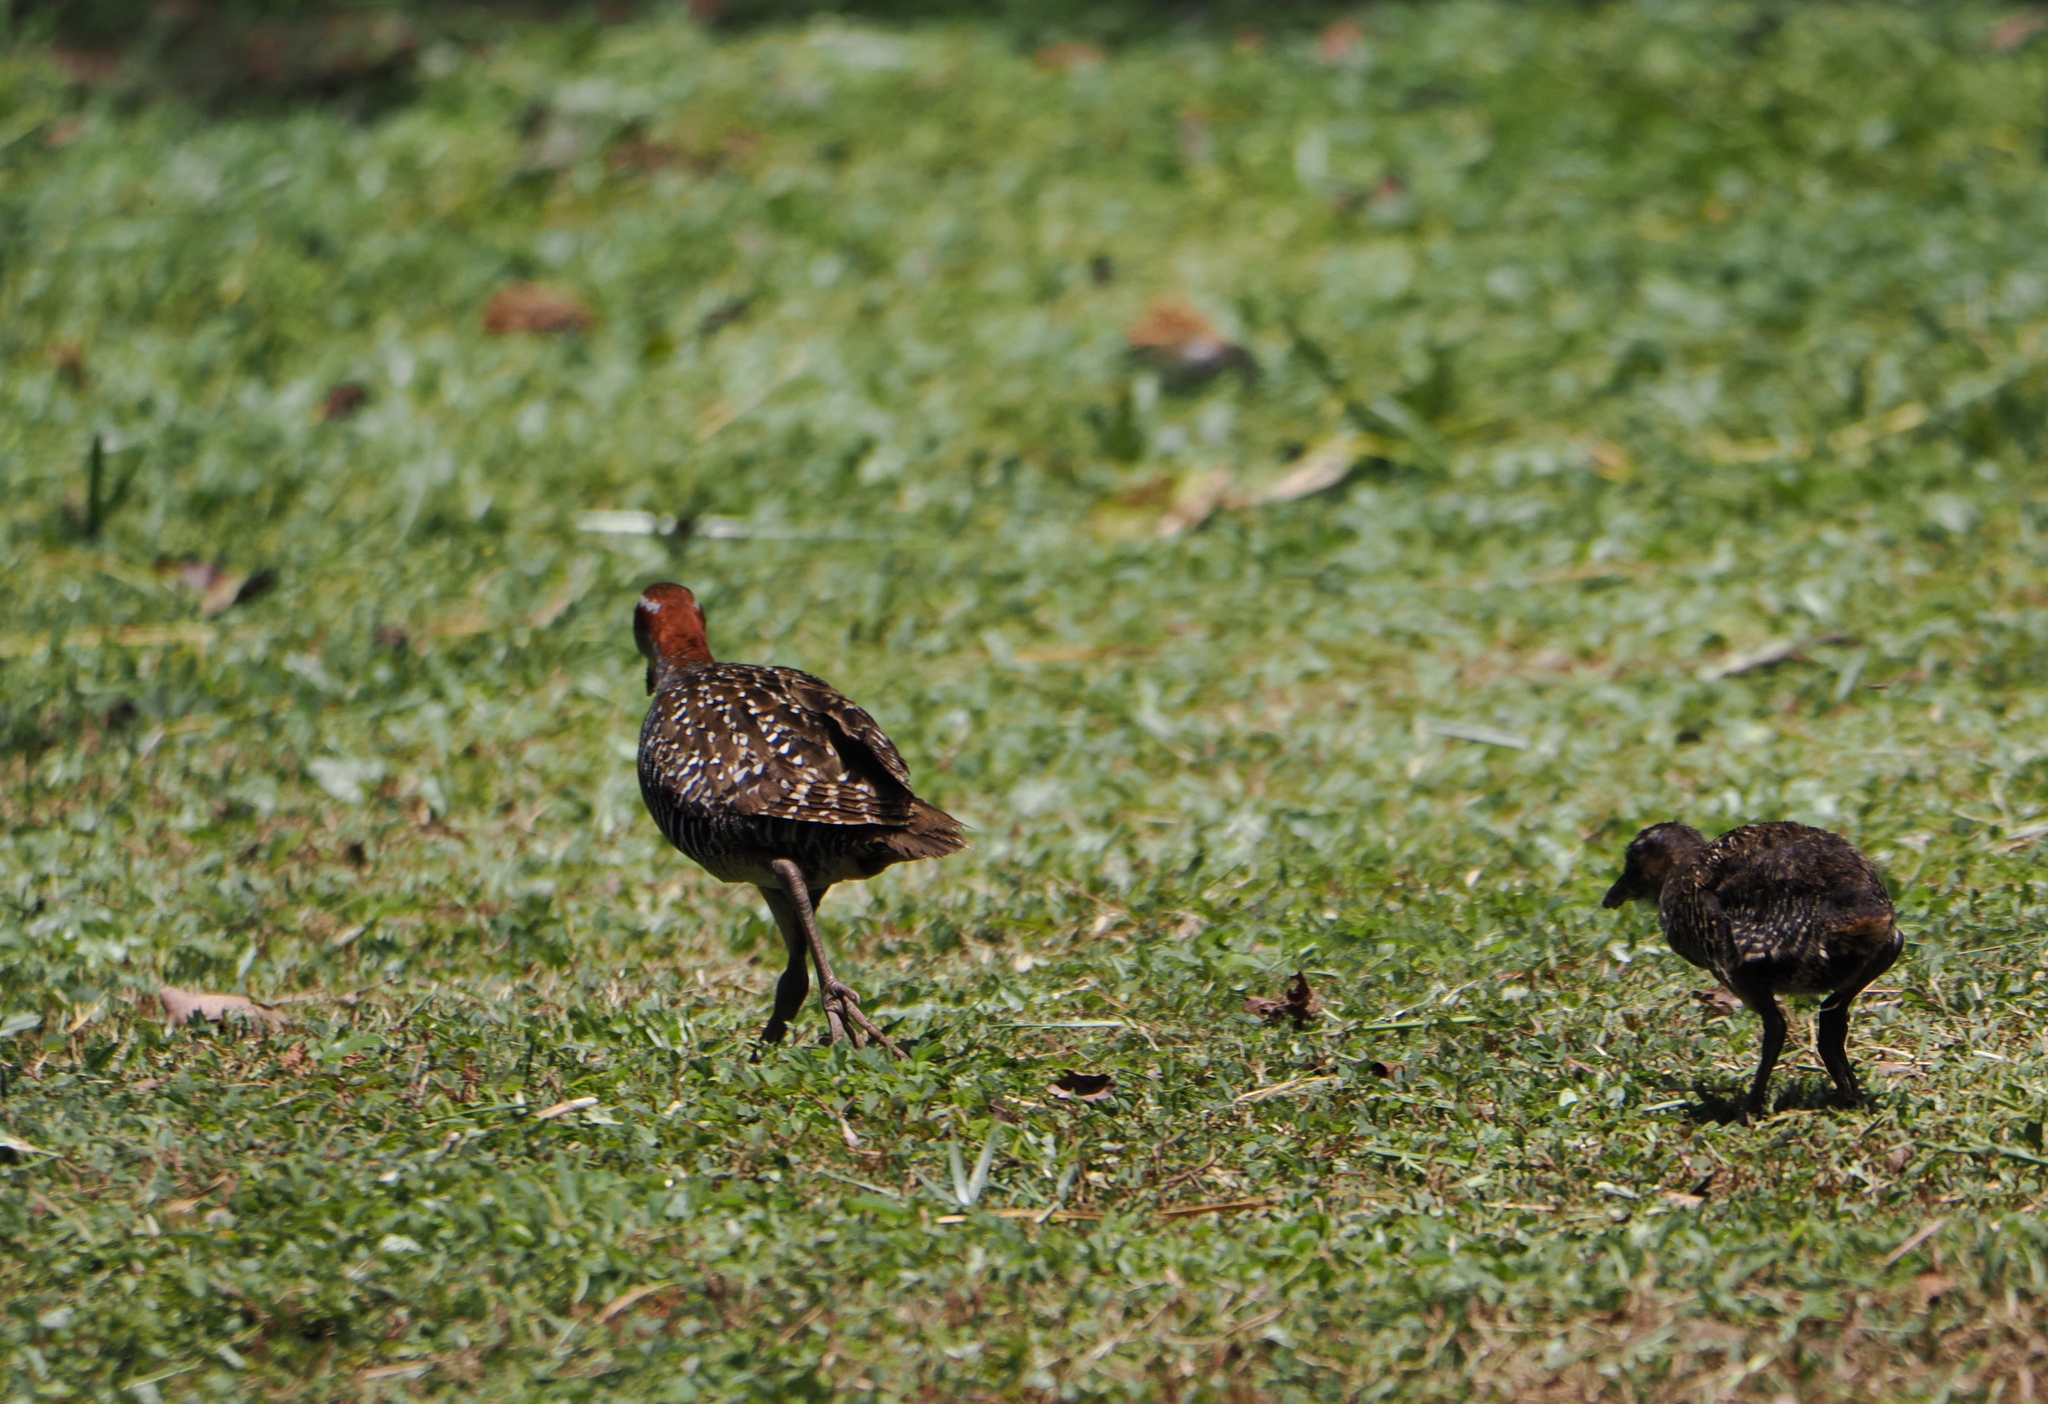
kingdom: Animalia
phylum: Chordata
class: Aves
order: Gruiformes
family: Rallidae
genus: Gallirallus
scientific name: Gallirallus philippensis
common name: Buff-banded rail
